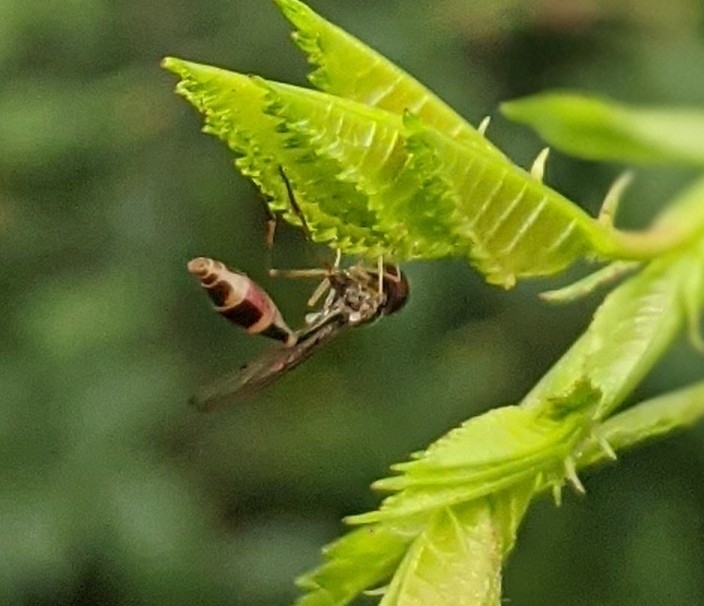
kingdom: Animalia
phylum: Arthropoda
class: Insecta
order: Diptera
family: Syrphidae
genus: Baccha
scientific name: Baccha elongata
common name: Common dainty
